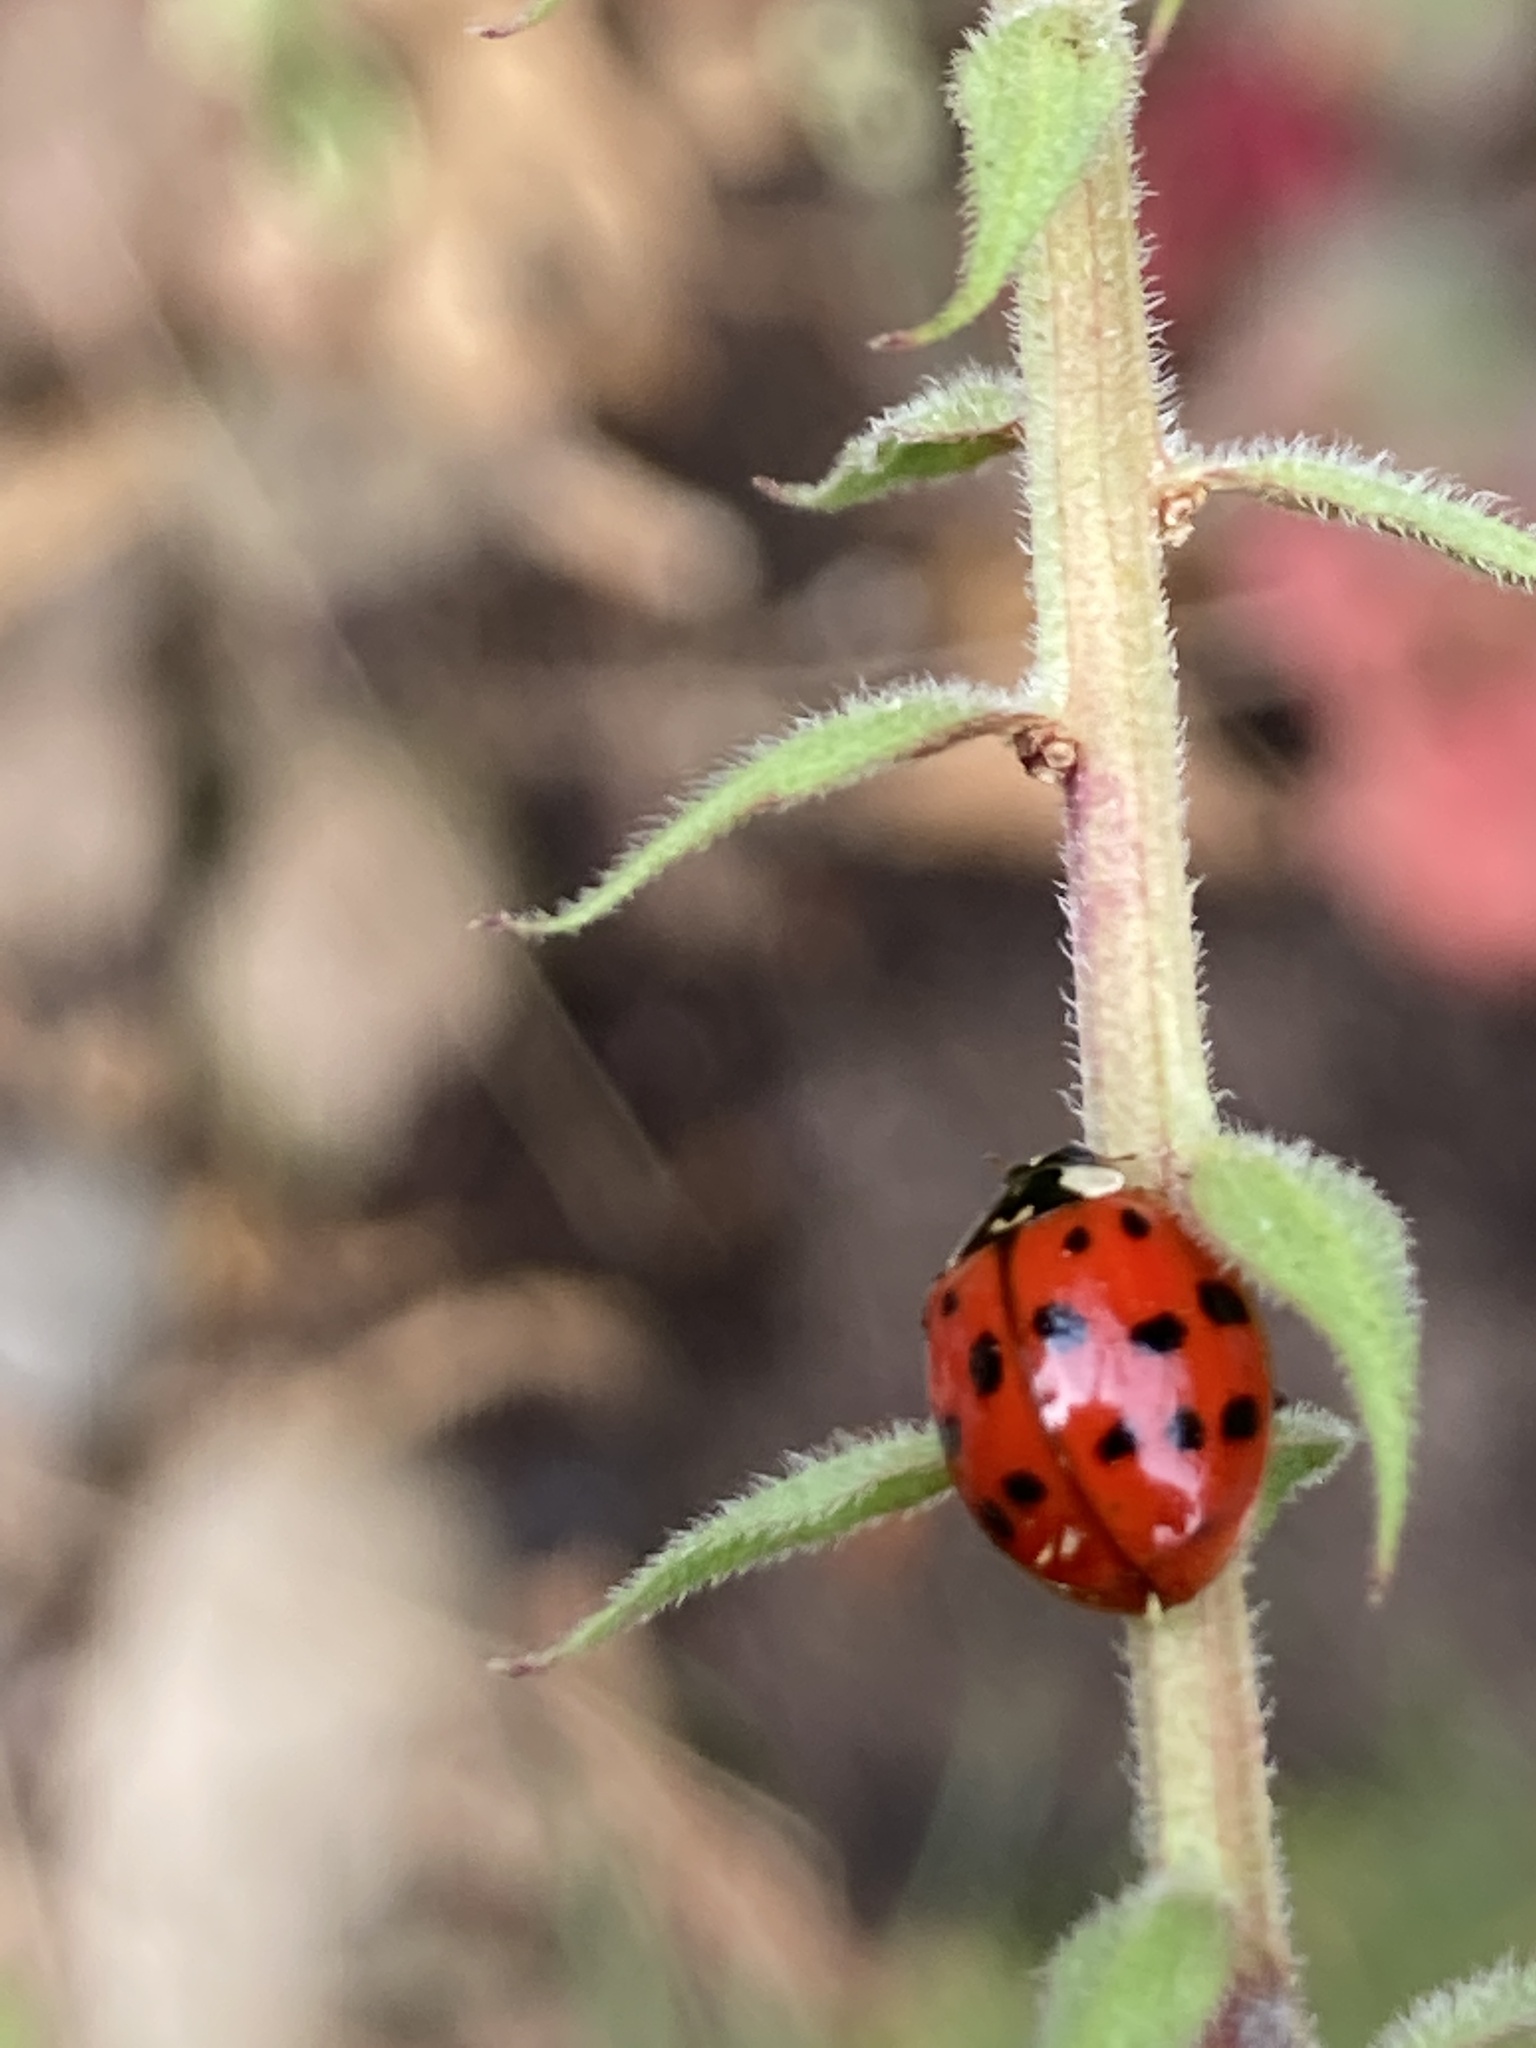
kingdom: Animalia
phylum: Arthropoda
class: Insecta
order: Coleoptera
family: Coccinellidae
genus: Harmonia
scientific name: Harmonia axyridis
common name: Harlequin ladybird
